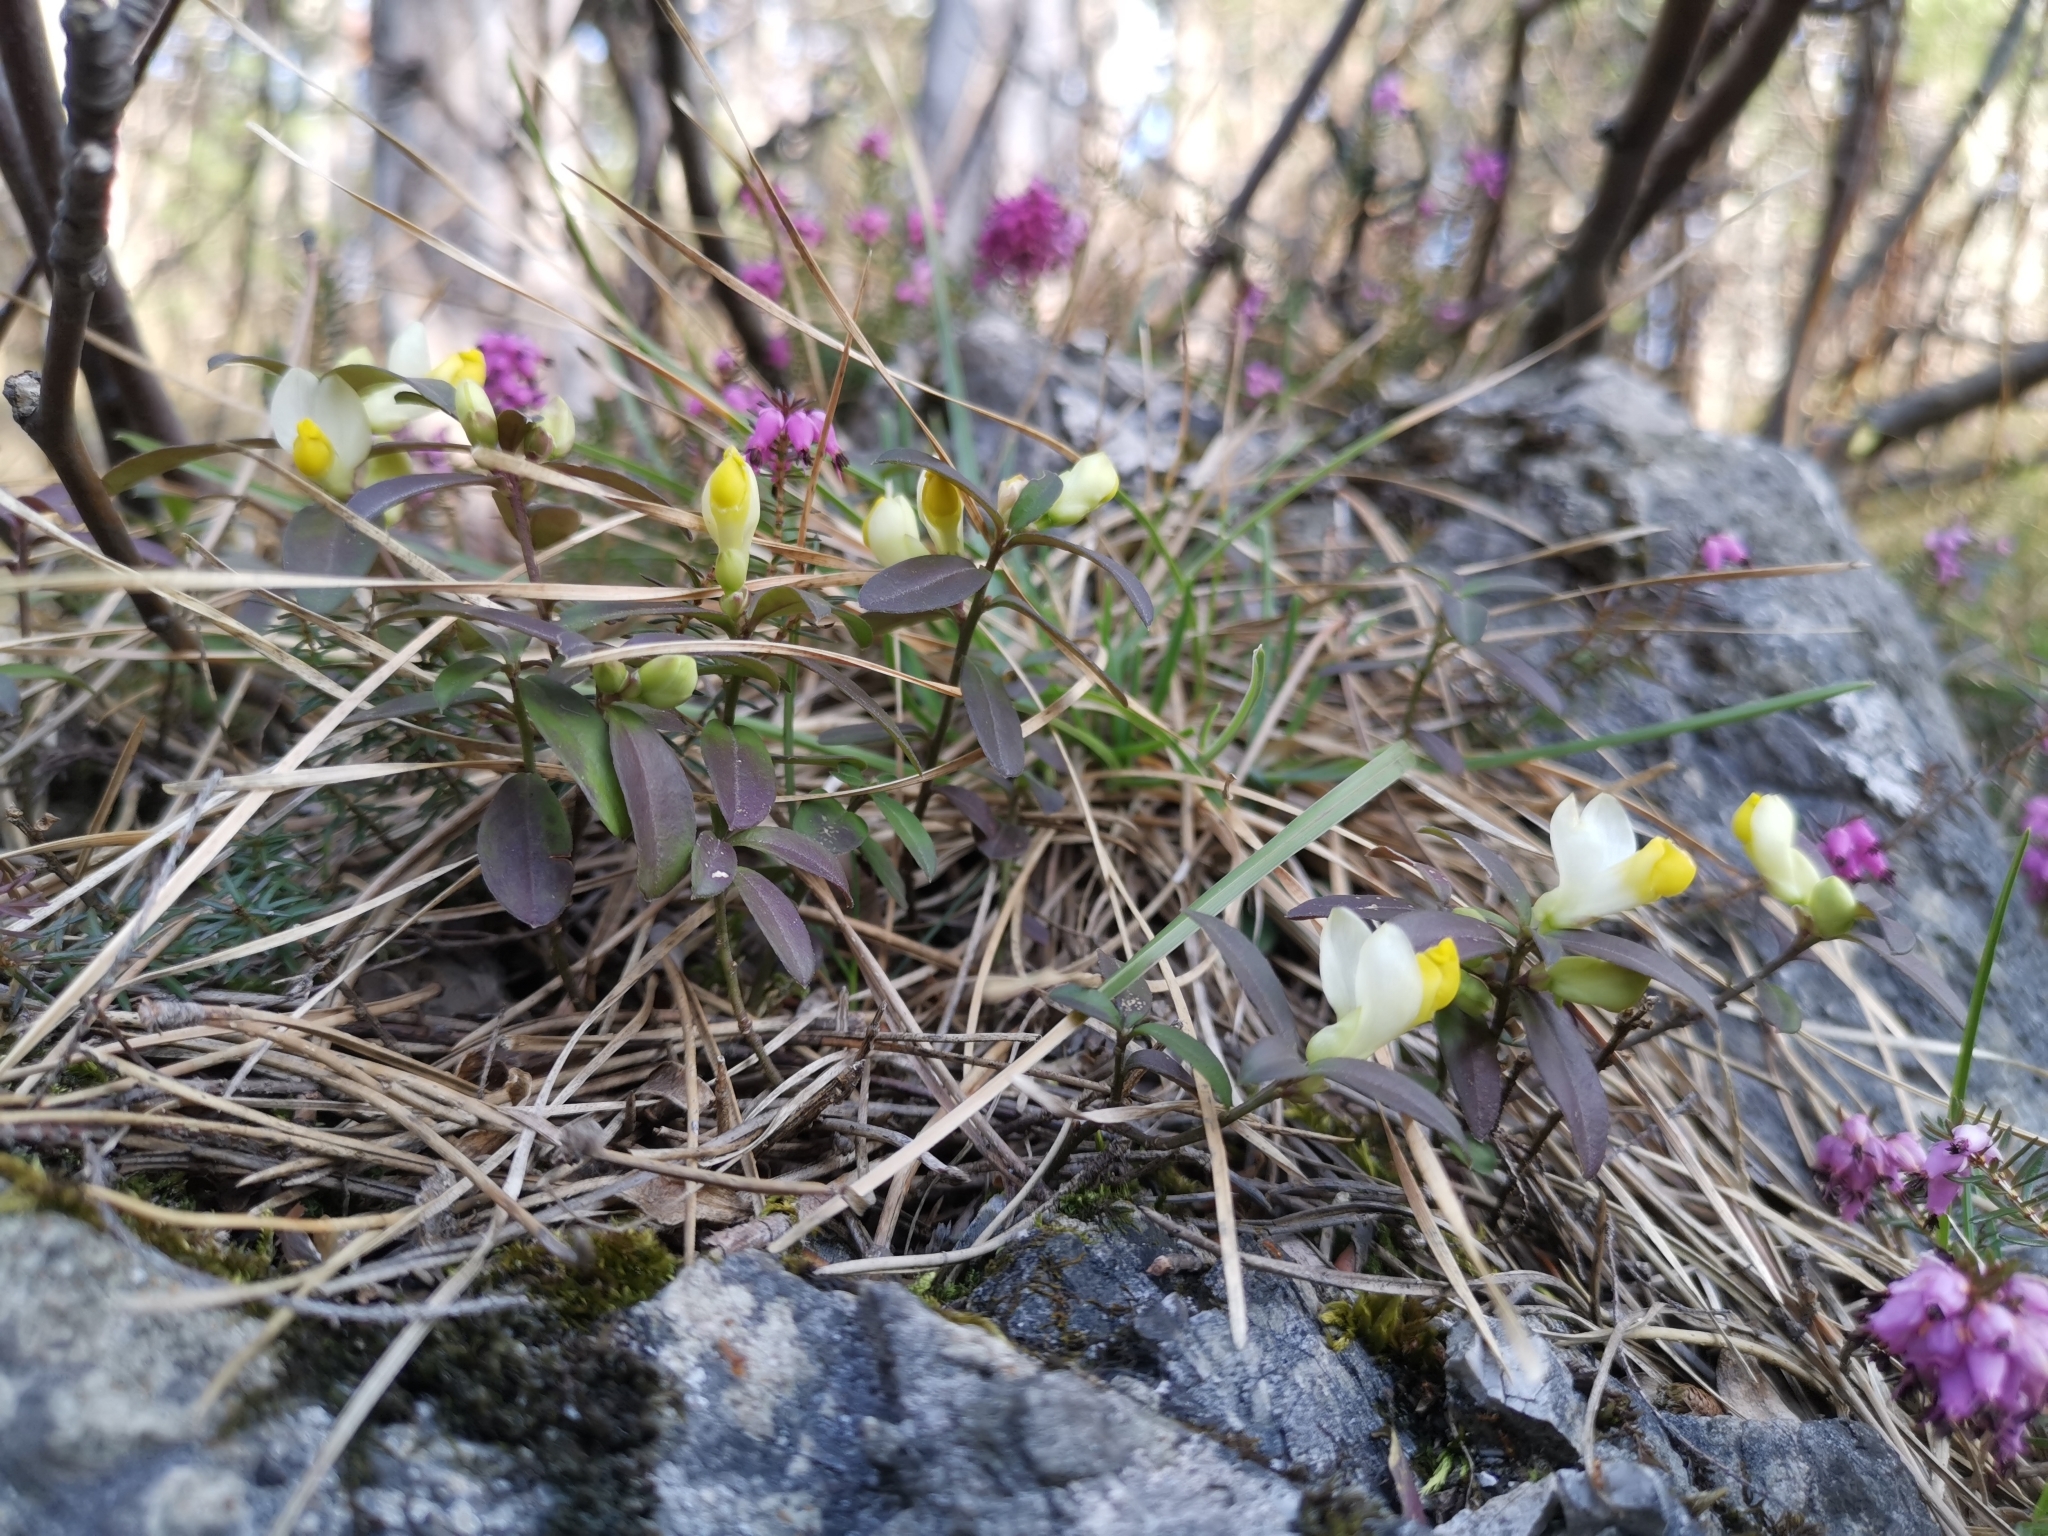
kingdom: Plantae
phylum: Tracheophyta
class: Magnoliopsida
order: Fabales
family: Polygalaceae
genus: Polygaloides
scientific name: Polygaloides chamaebuxus
